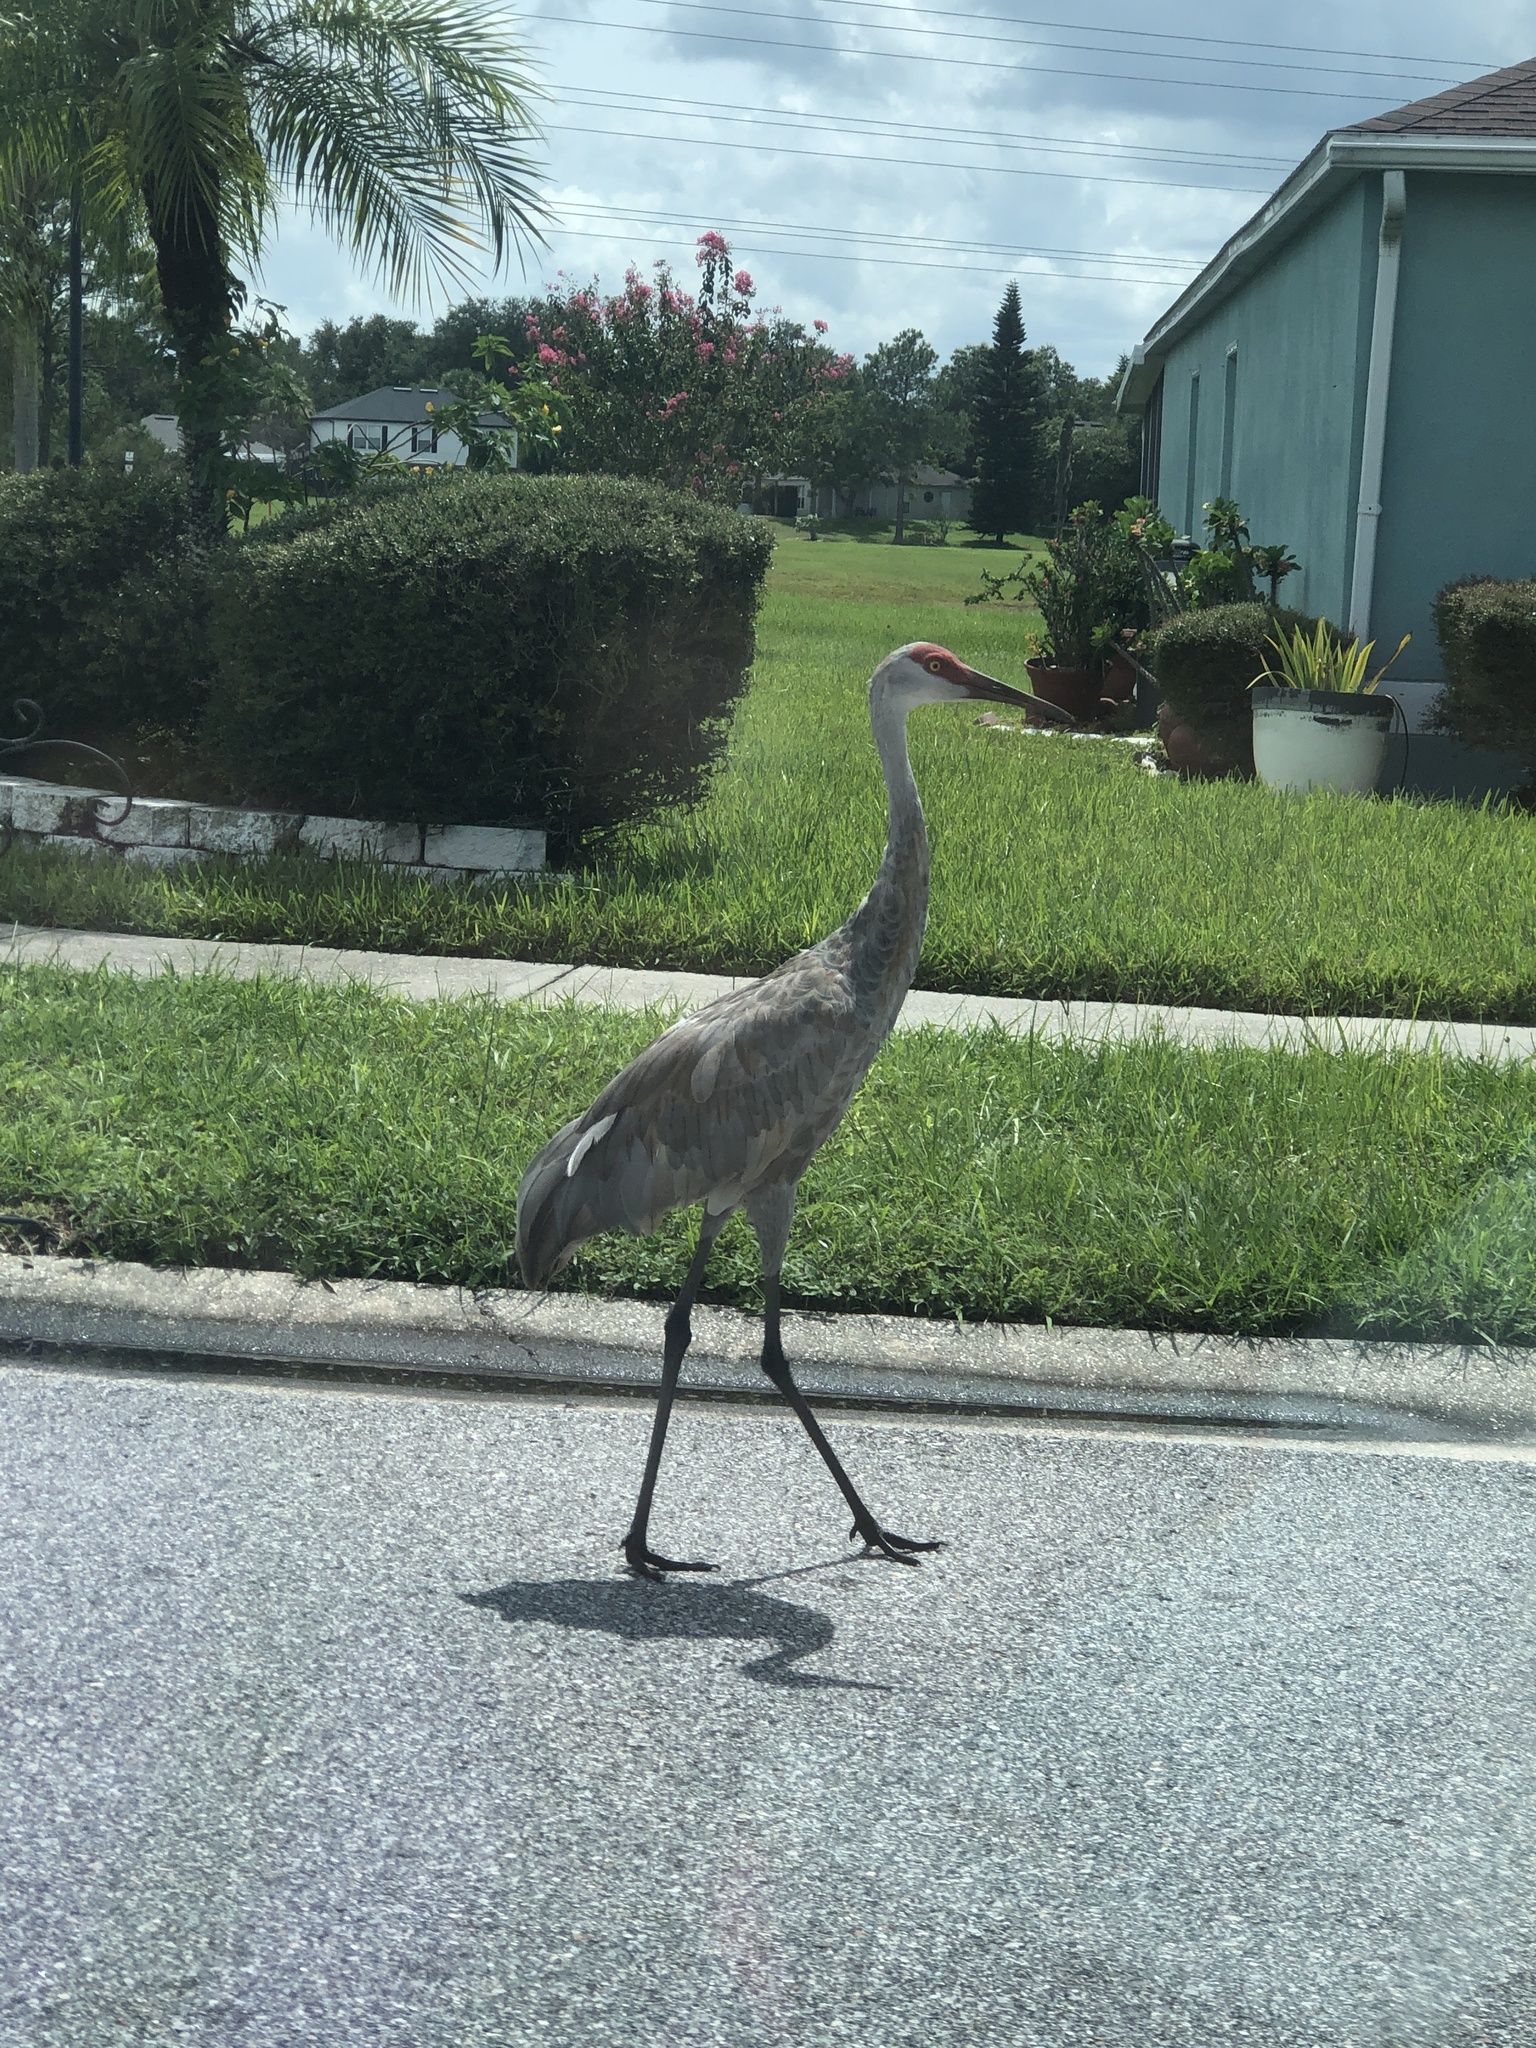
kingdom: Animalia
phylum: Chordata
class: Aves
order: Gruiformes
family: Gruidae
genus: Grus
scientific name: Grus canadensis
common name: Sandhill crane
